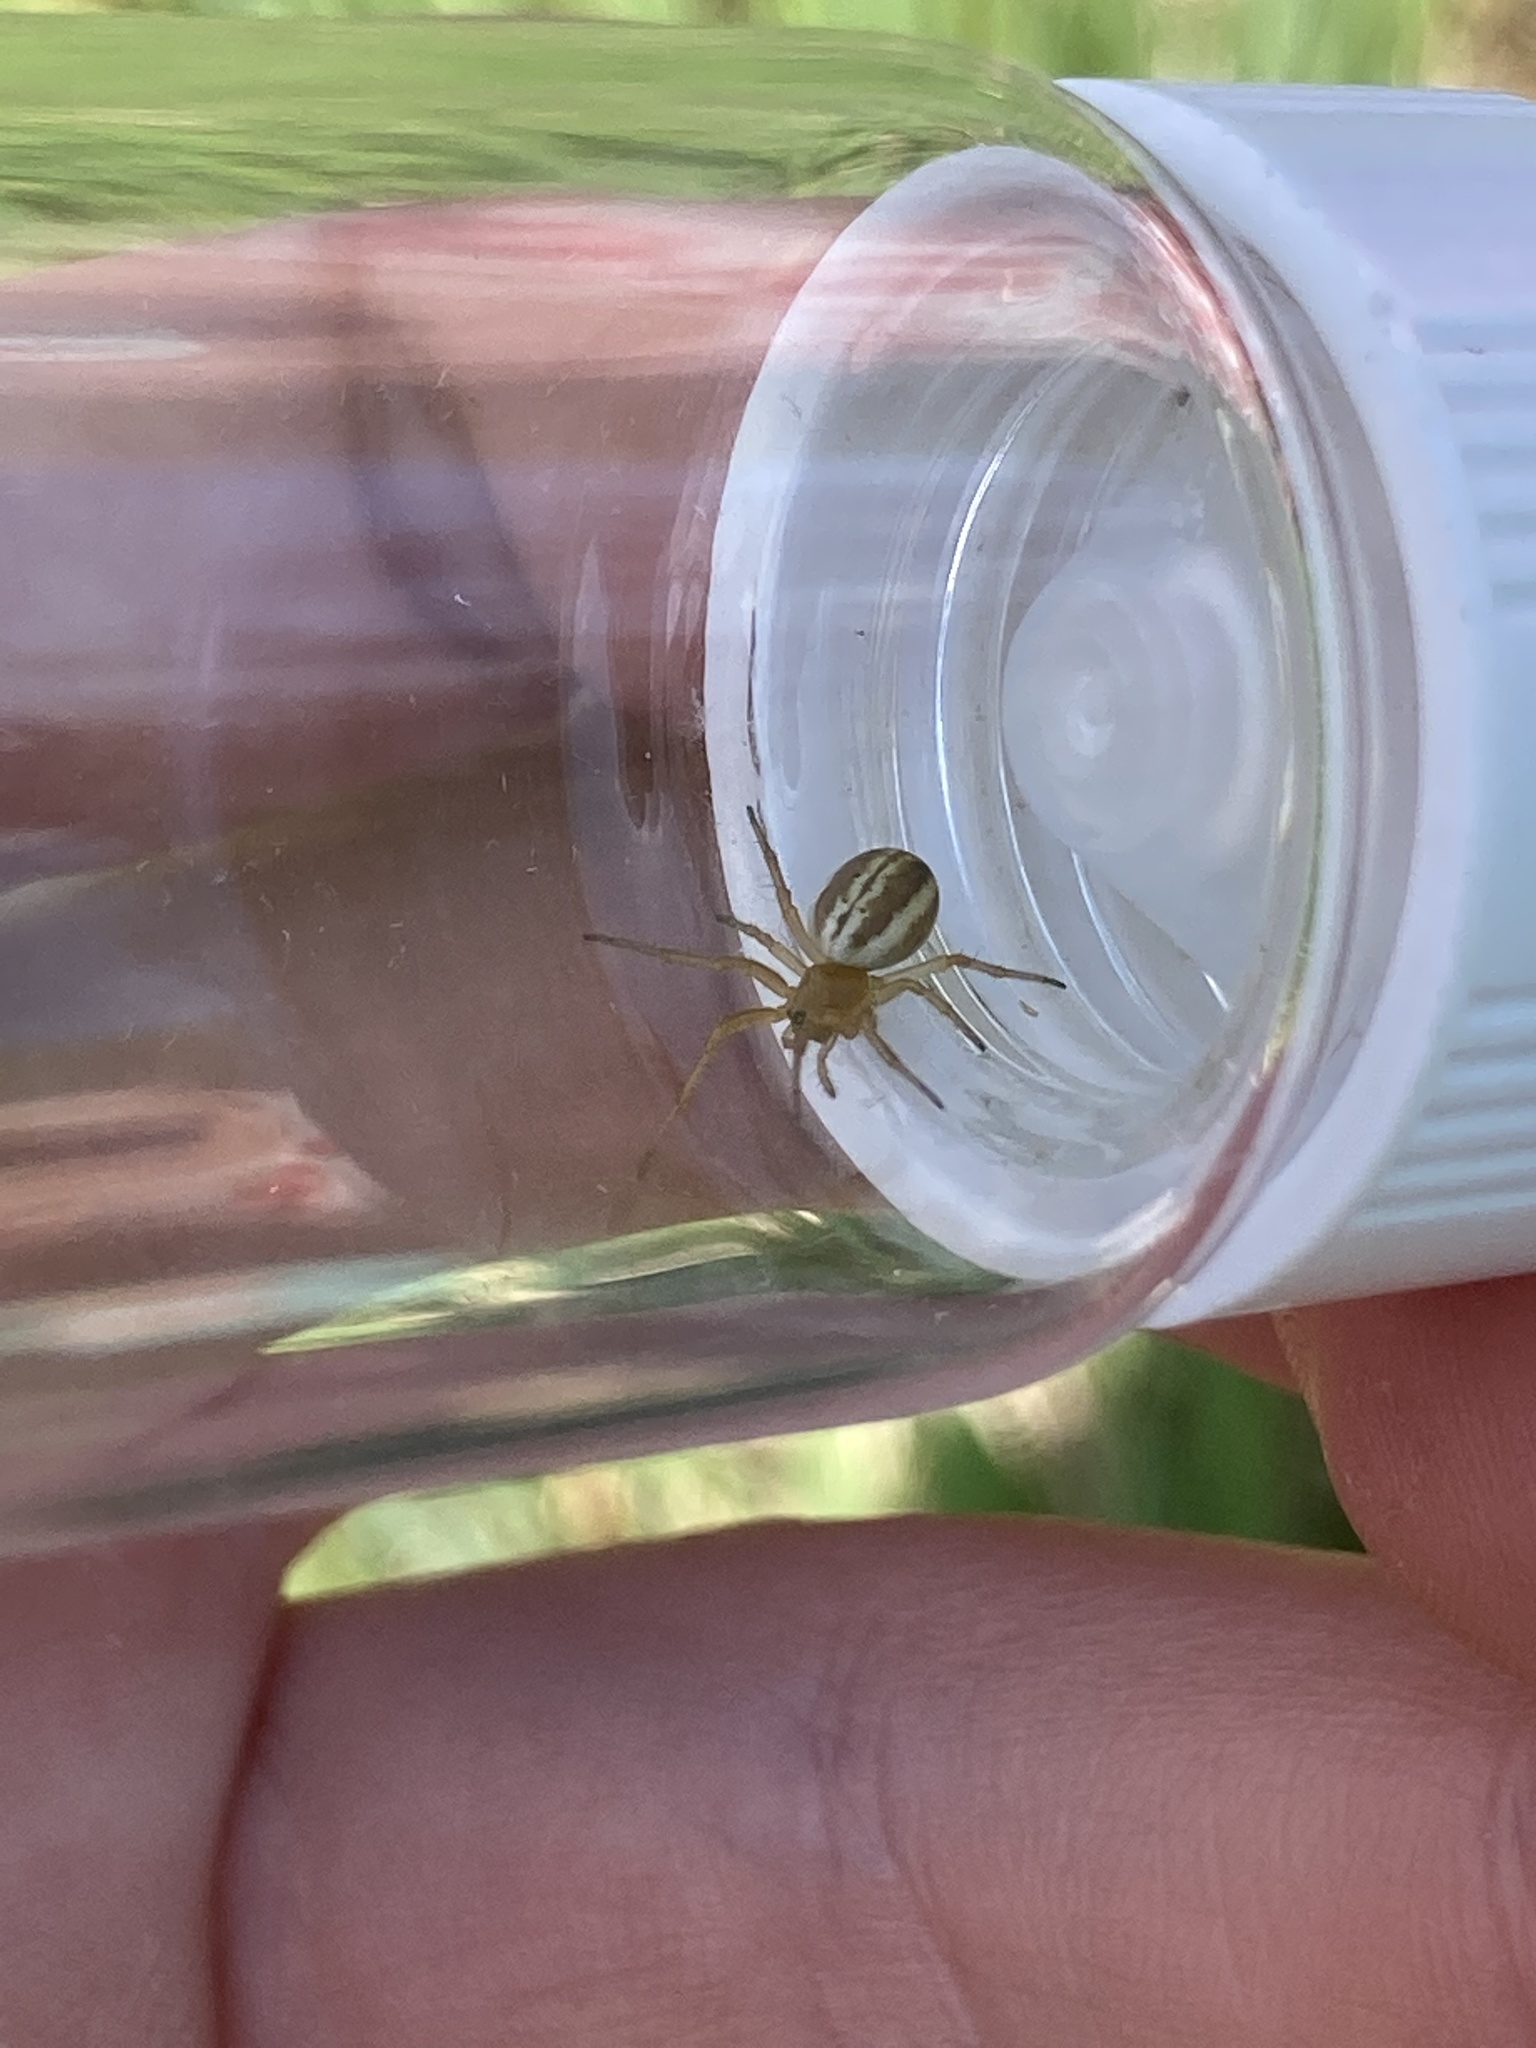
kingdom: Animalia
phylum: Arthropoda
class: Arachnida
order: Araneae
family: Araneidae
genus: Araneus
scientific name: Araneus pratensis
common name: Openfield orbweaver
